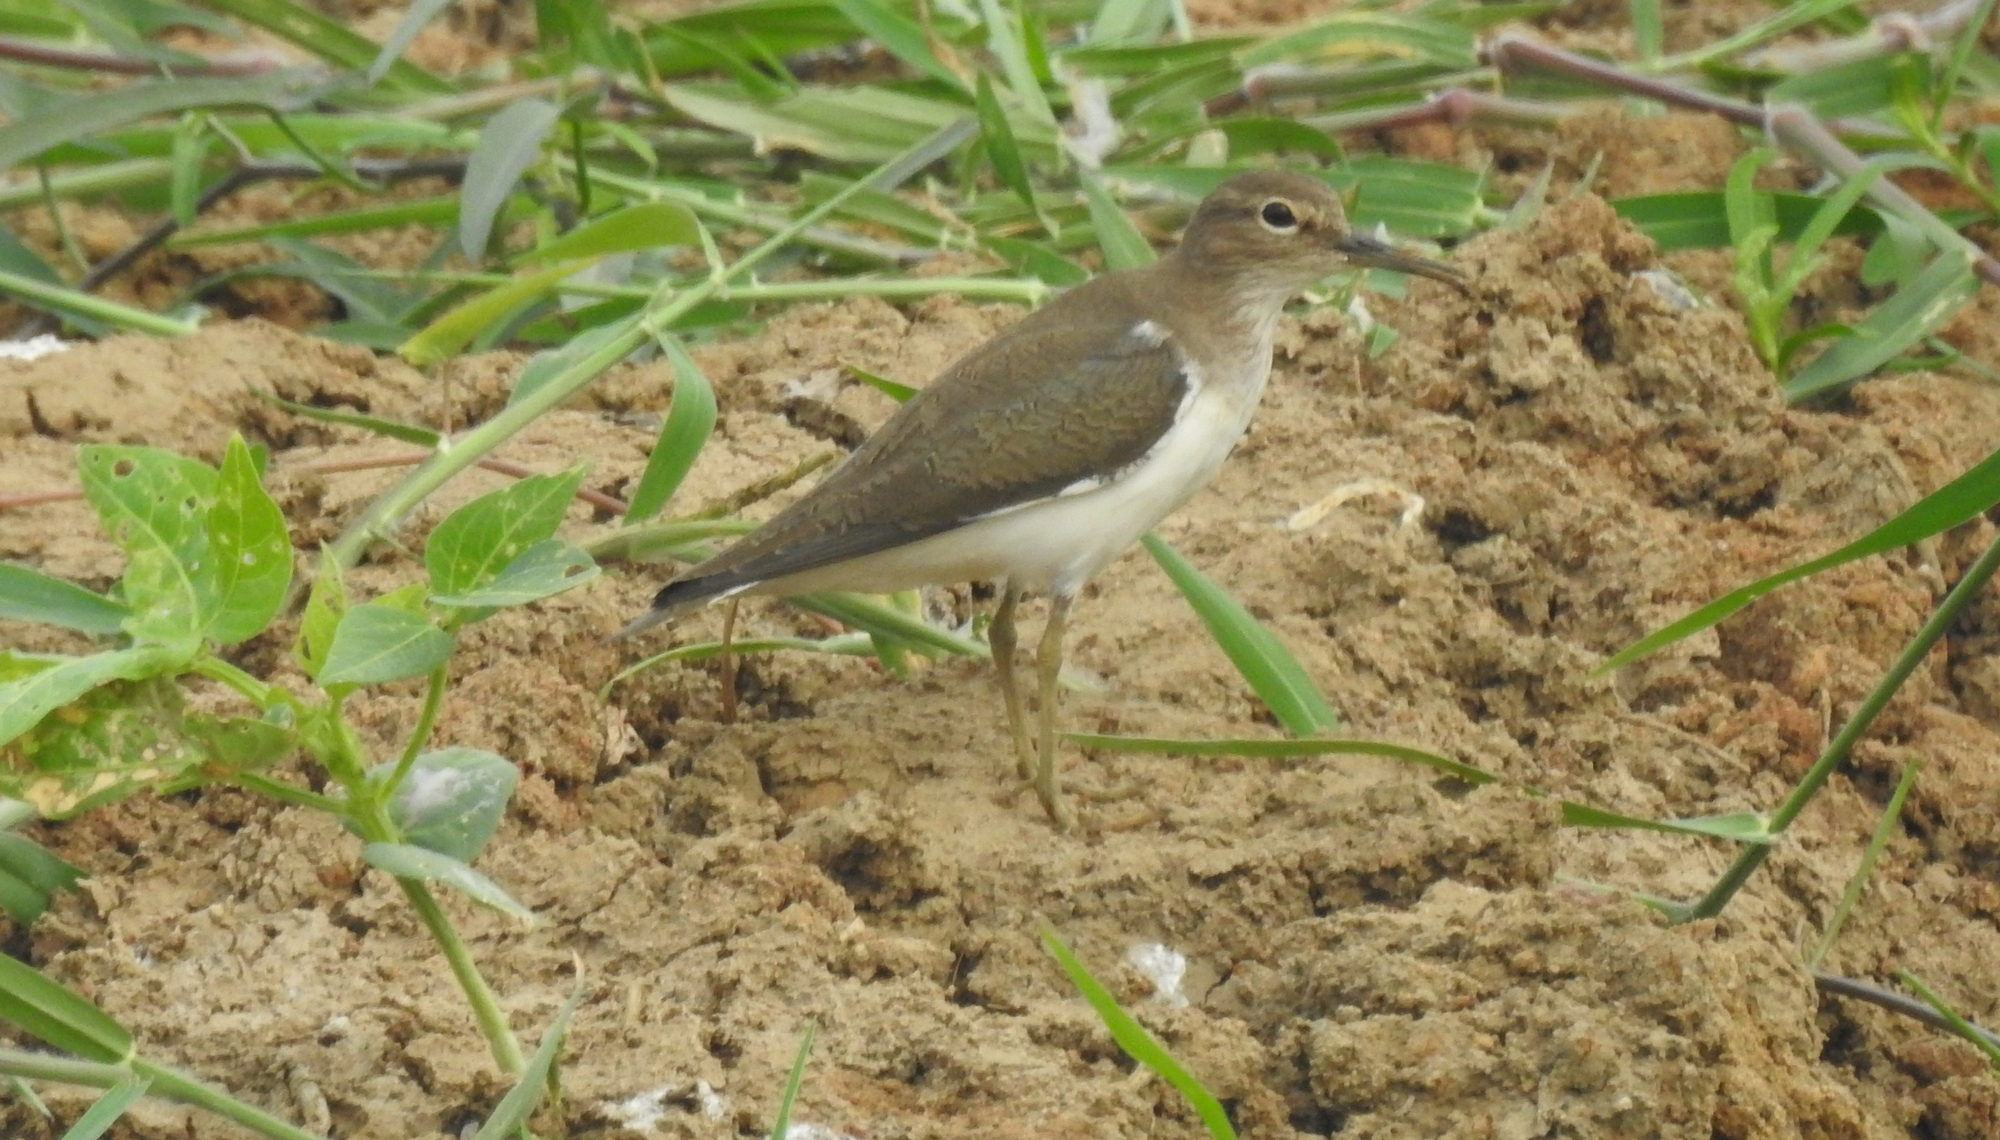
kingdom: Animalia
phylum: Chordata
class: Aves
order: Charadriiformes
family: Scolopacidae
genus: Actitis
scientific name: Actitis hypoleucos
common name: Common sandpiper
